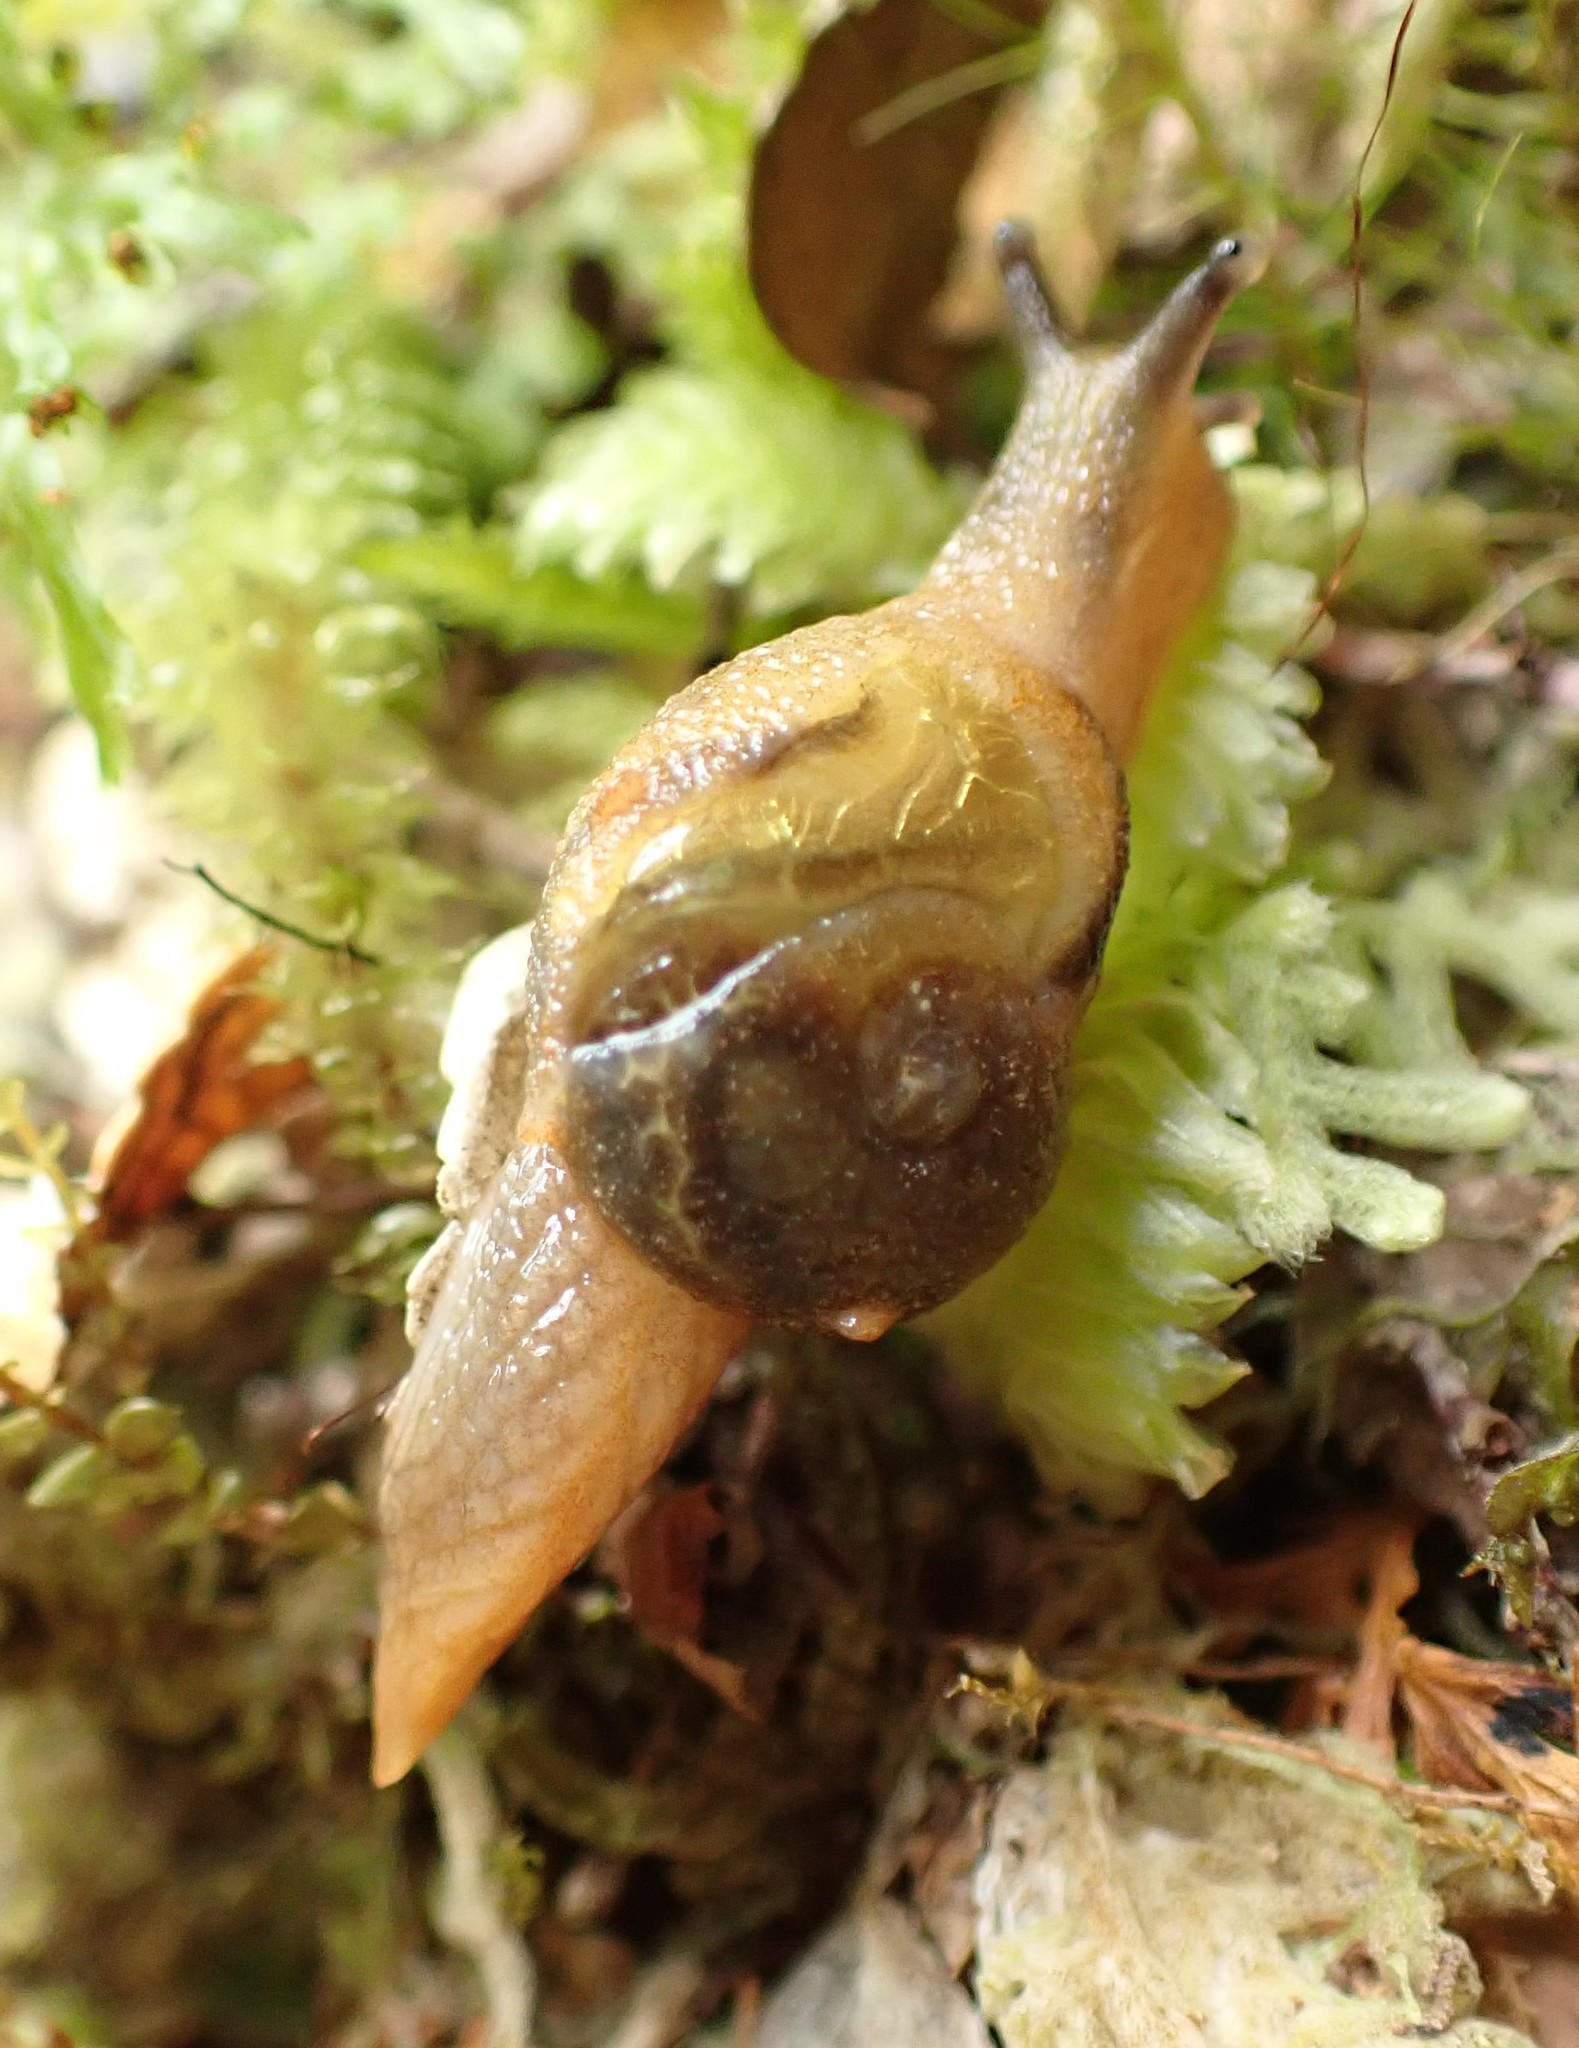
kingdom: Animalia
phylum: Mollusca
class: Gastropoda
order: Stylommatophora
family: Helicarionidae
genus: Helicarion
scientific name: Helicarion cuvieri
